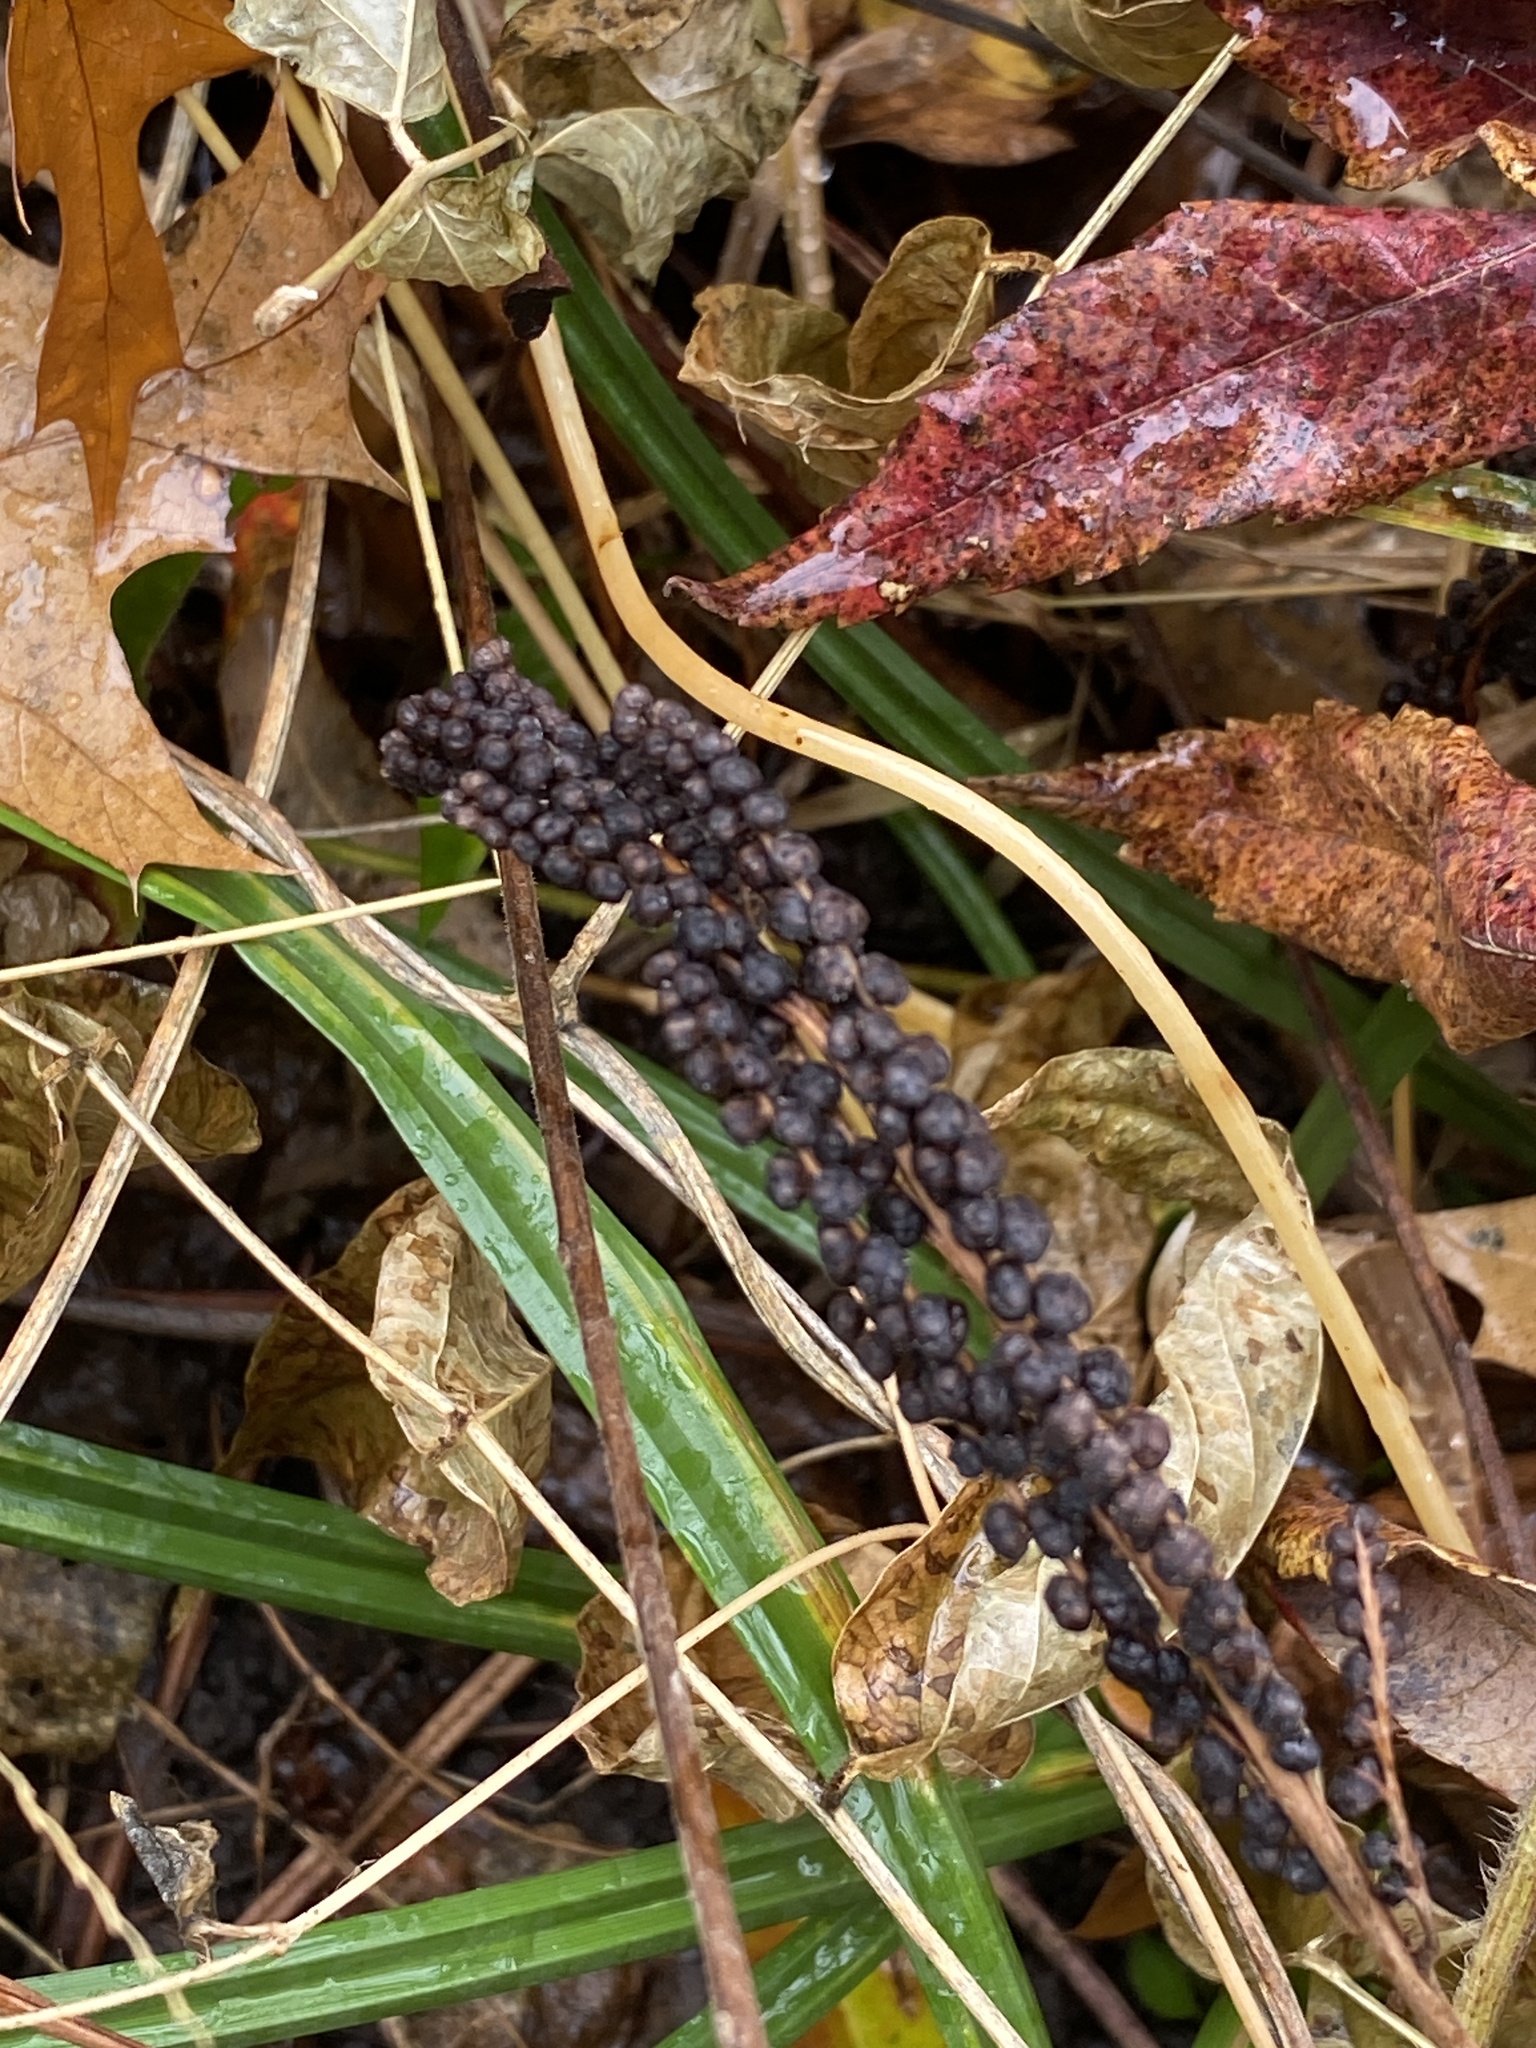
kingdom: Plantae
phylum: Tracheophyta
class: Polypodiopsida
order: Polypodiales
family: Onocleaceae
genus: Onoclea
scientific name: Onoclea sensibilis
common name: Sensitive fern
